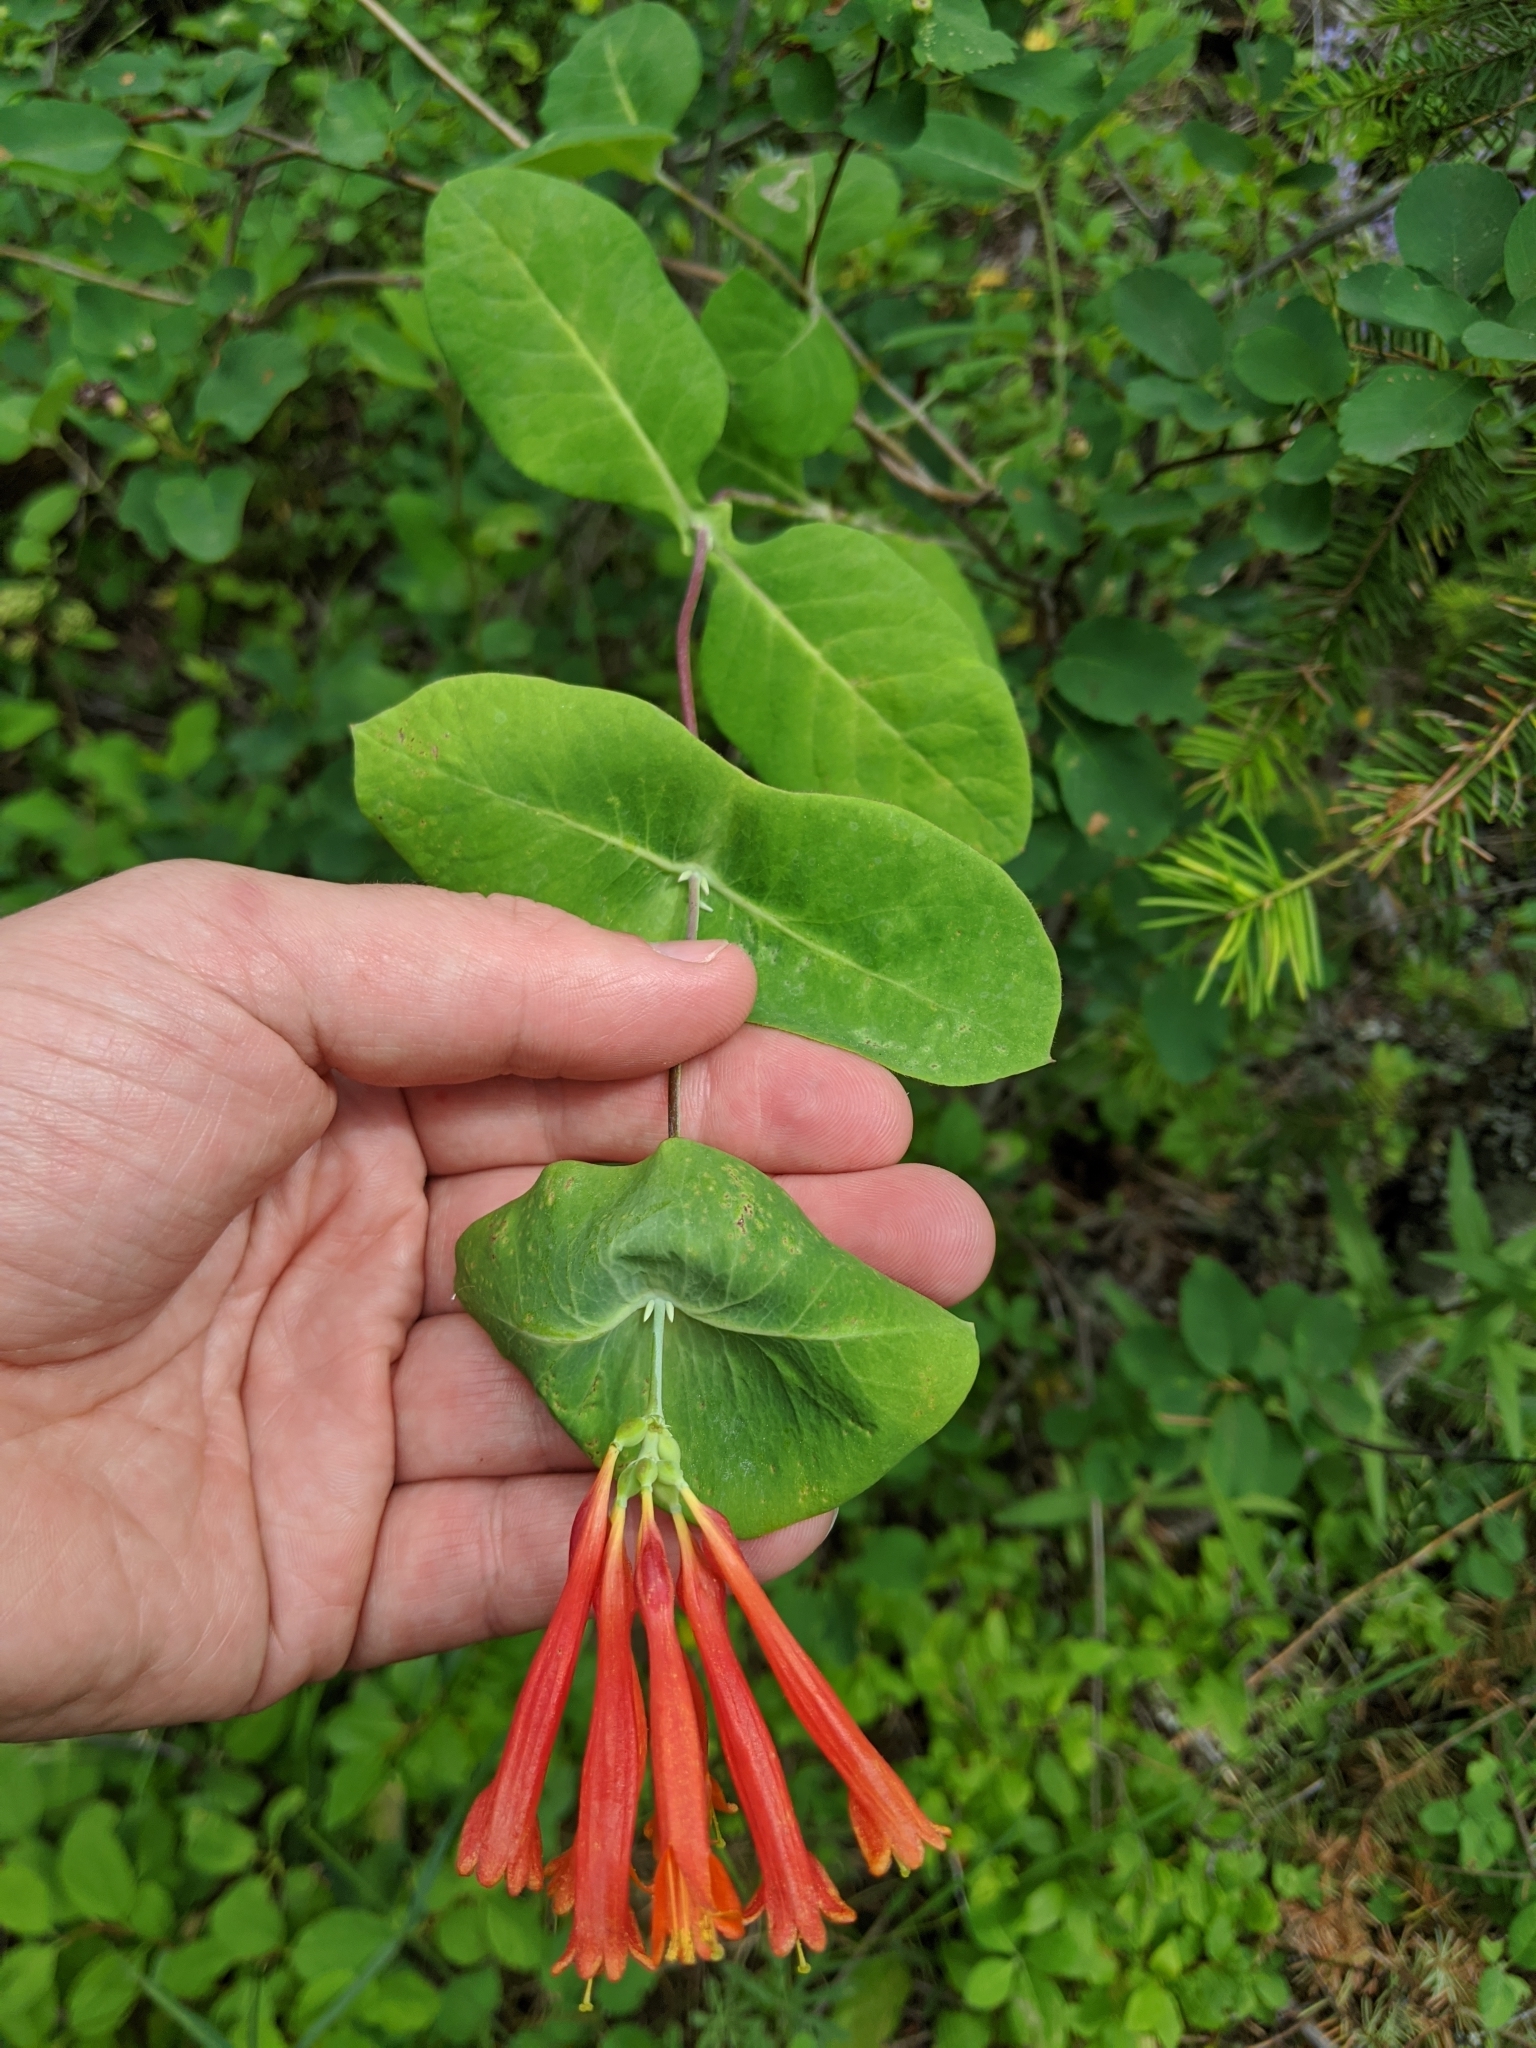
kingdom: Plantae
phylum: Tracheophyta
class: Magnoliopsida
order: Dipsacales
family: Caprifoliaceae
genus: Lonicera
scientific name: Lonicera ciliosa
